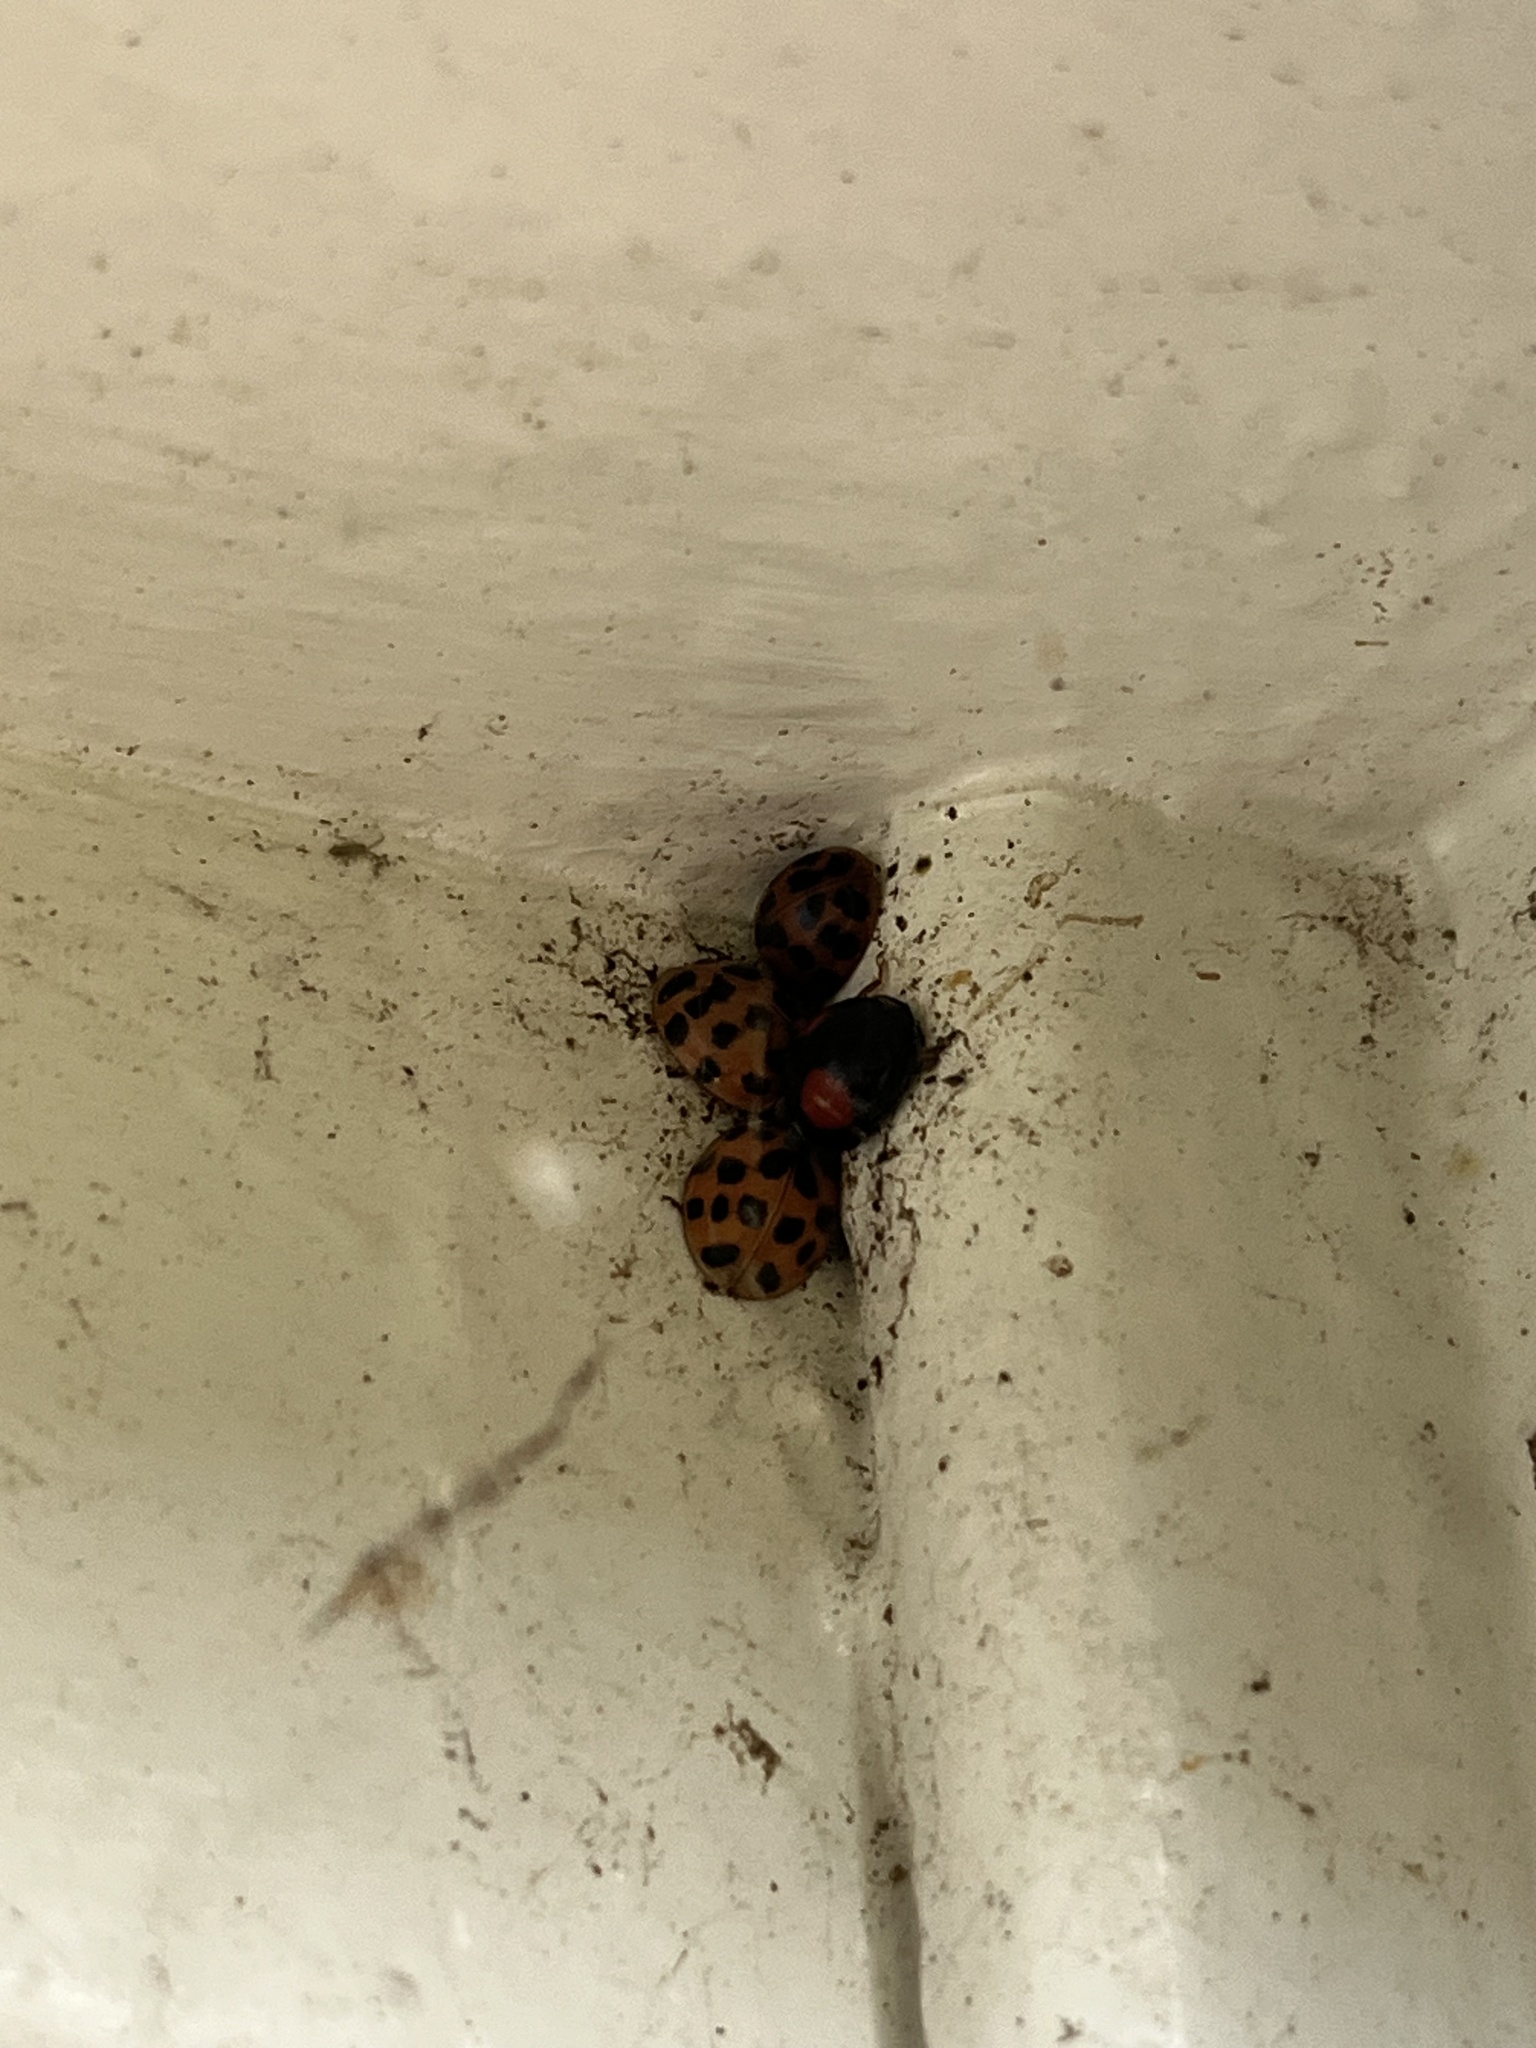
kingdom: Animalia
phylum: Arthropoda
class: Insecta
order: Coleoptera
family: Coccinellidae
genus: Harmonia
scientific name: Harmonia axyridis
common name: Harlequin ladybird
